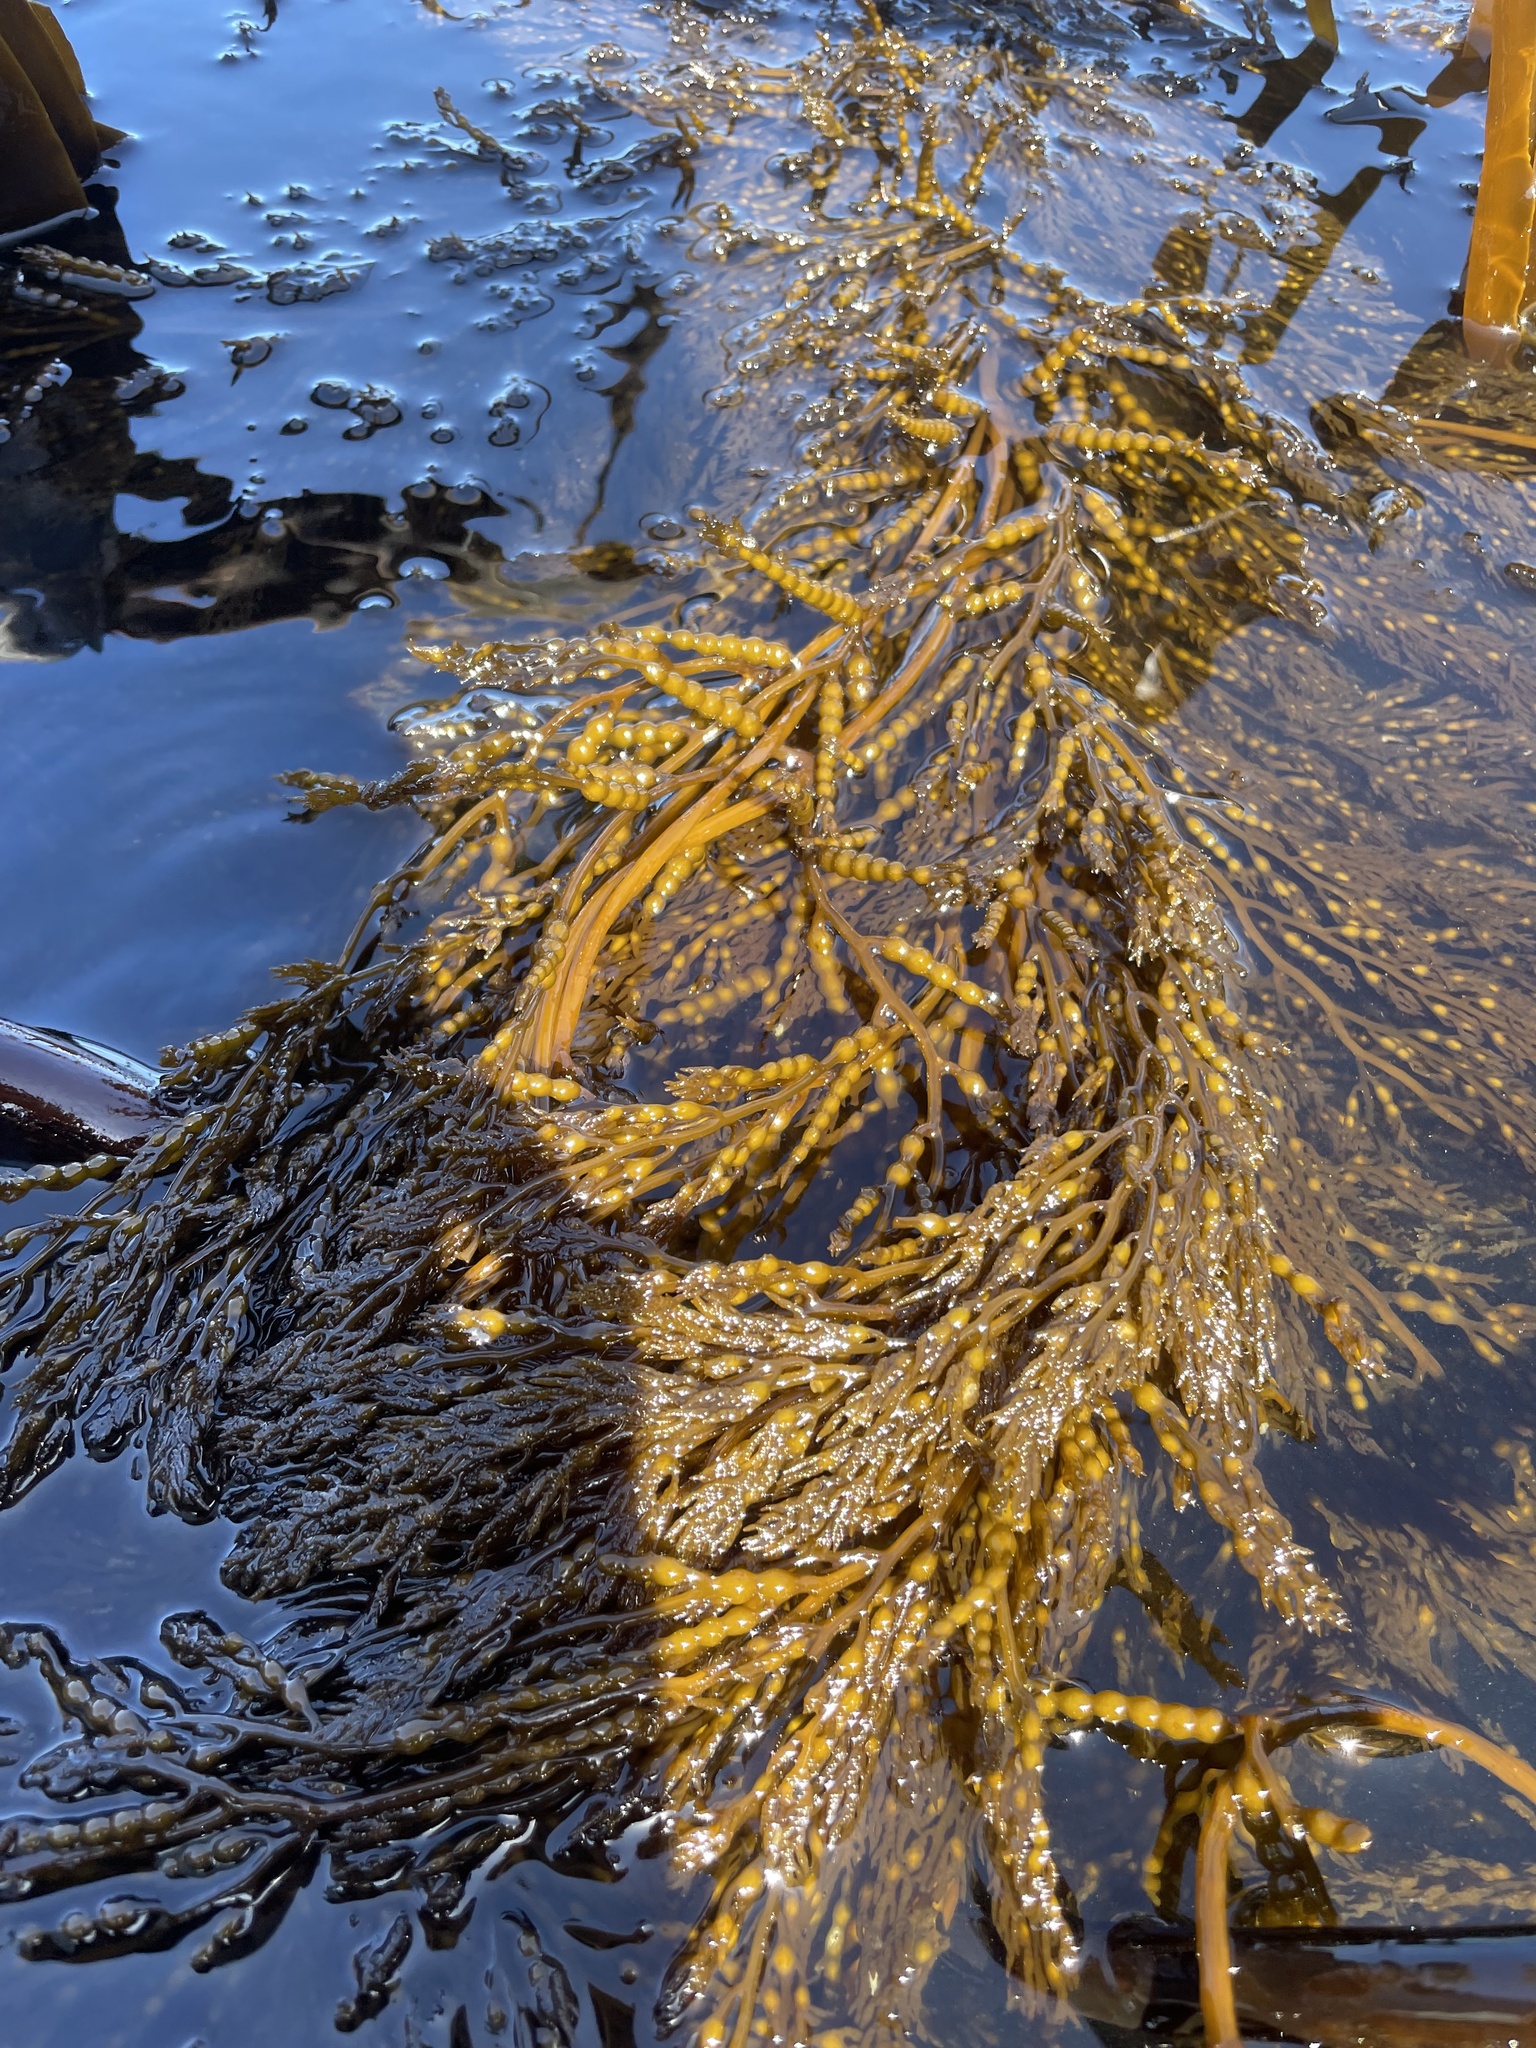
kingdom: Chromista
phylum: Ochrophyta
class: Phaeophyceae
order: Fucales
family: Sargassaceae
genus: Stephanocystis
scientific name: Stephanocystis
